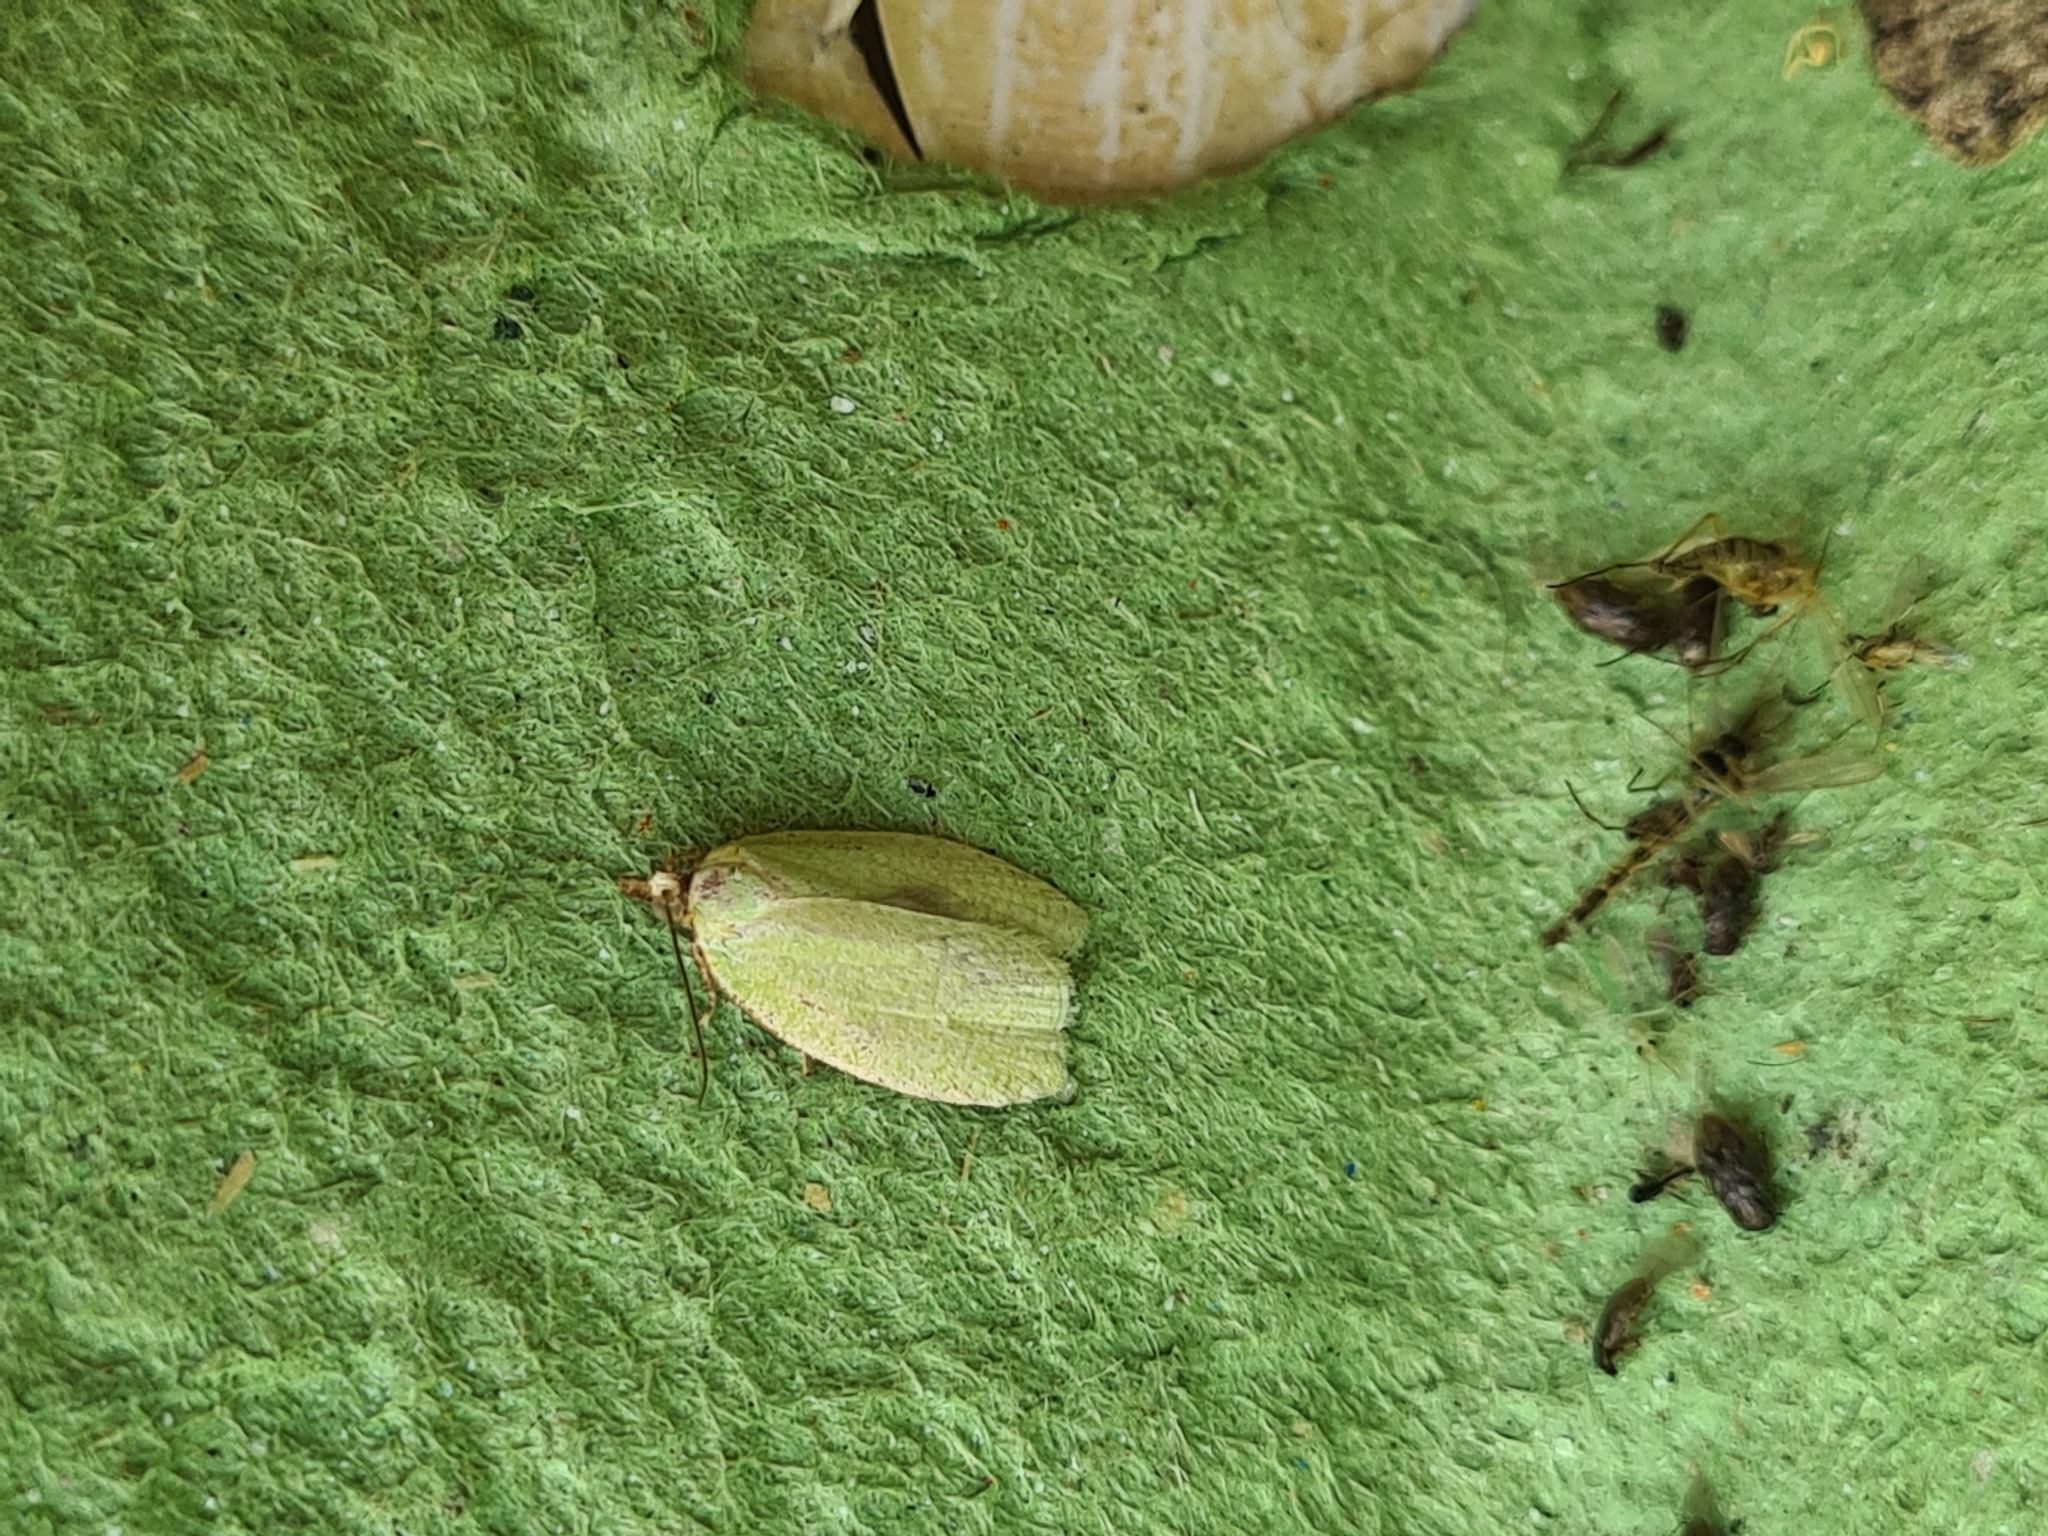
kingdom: Animalia
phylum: Arthropoda
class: Insecta
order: Lepidoptera
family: Tortricidae
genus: Tortrix
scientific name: Tortrix viridana
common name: Green oak tortrix
